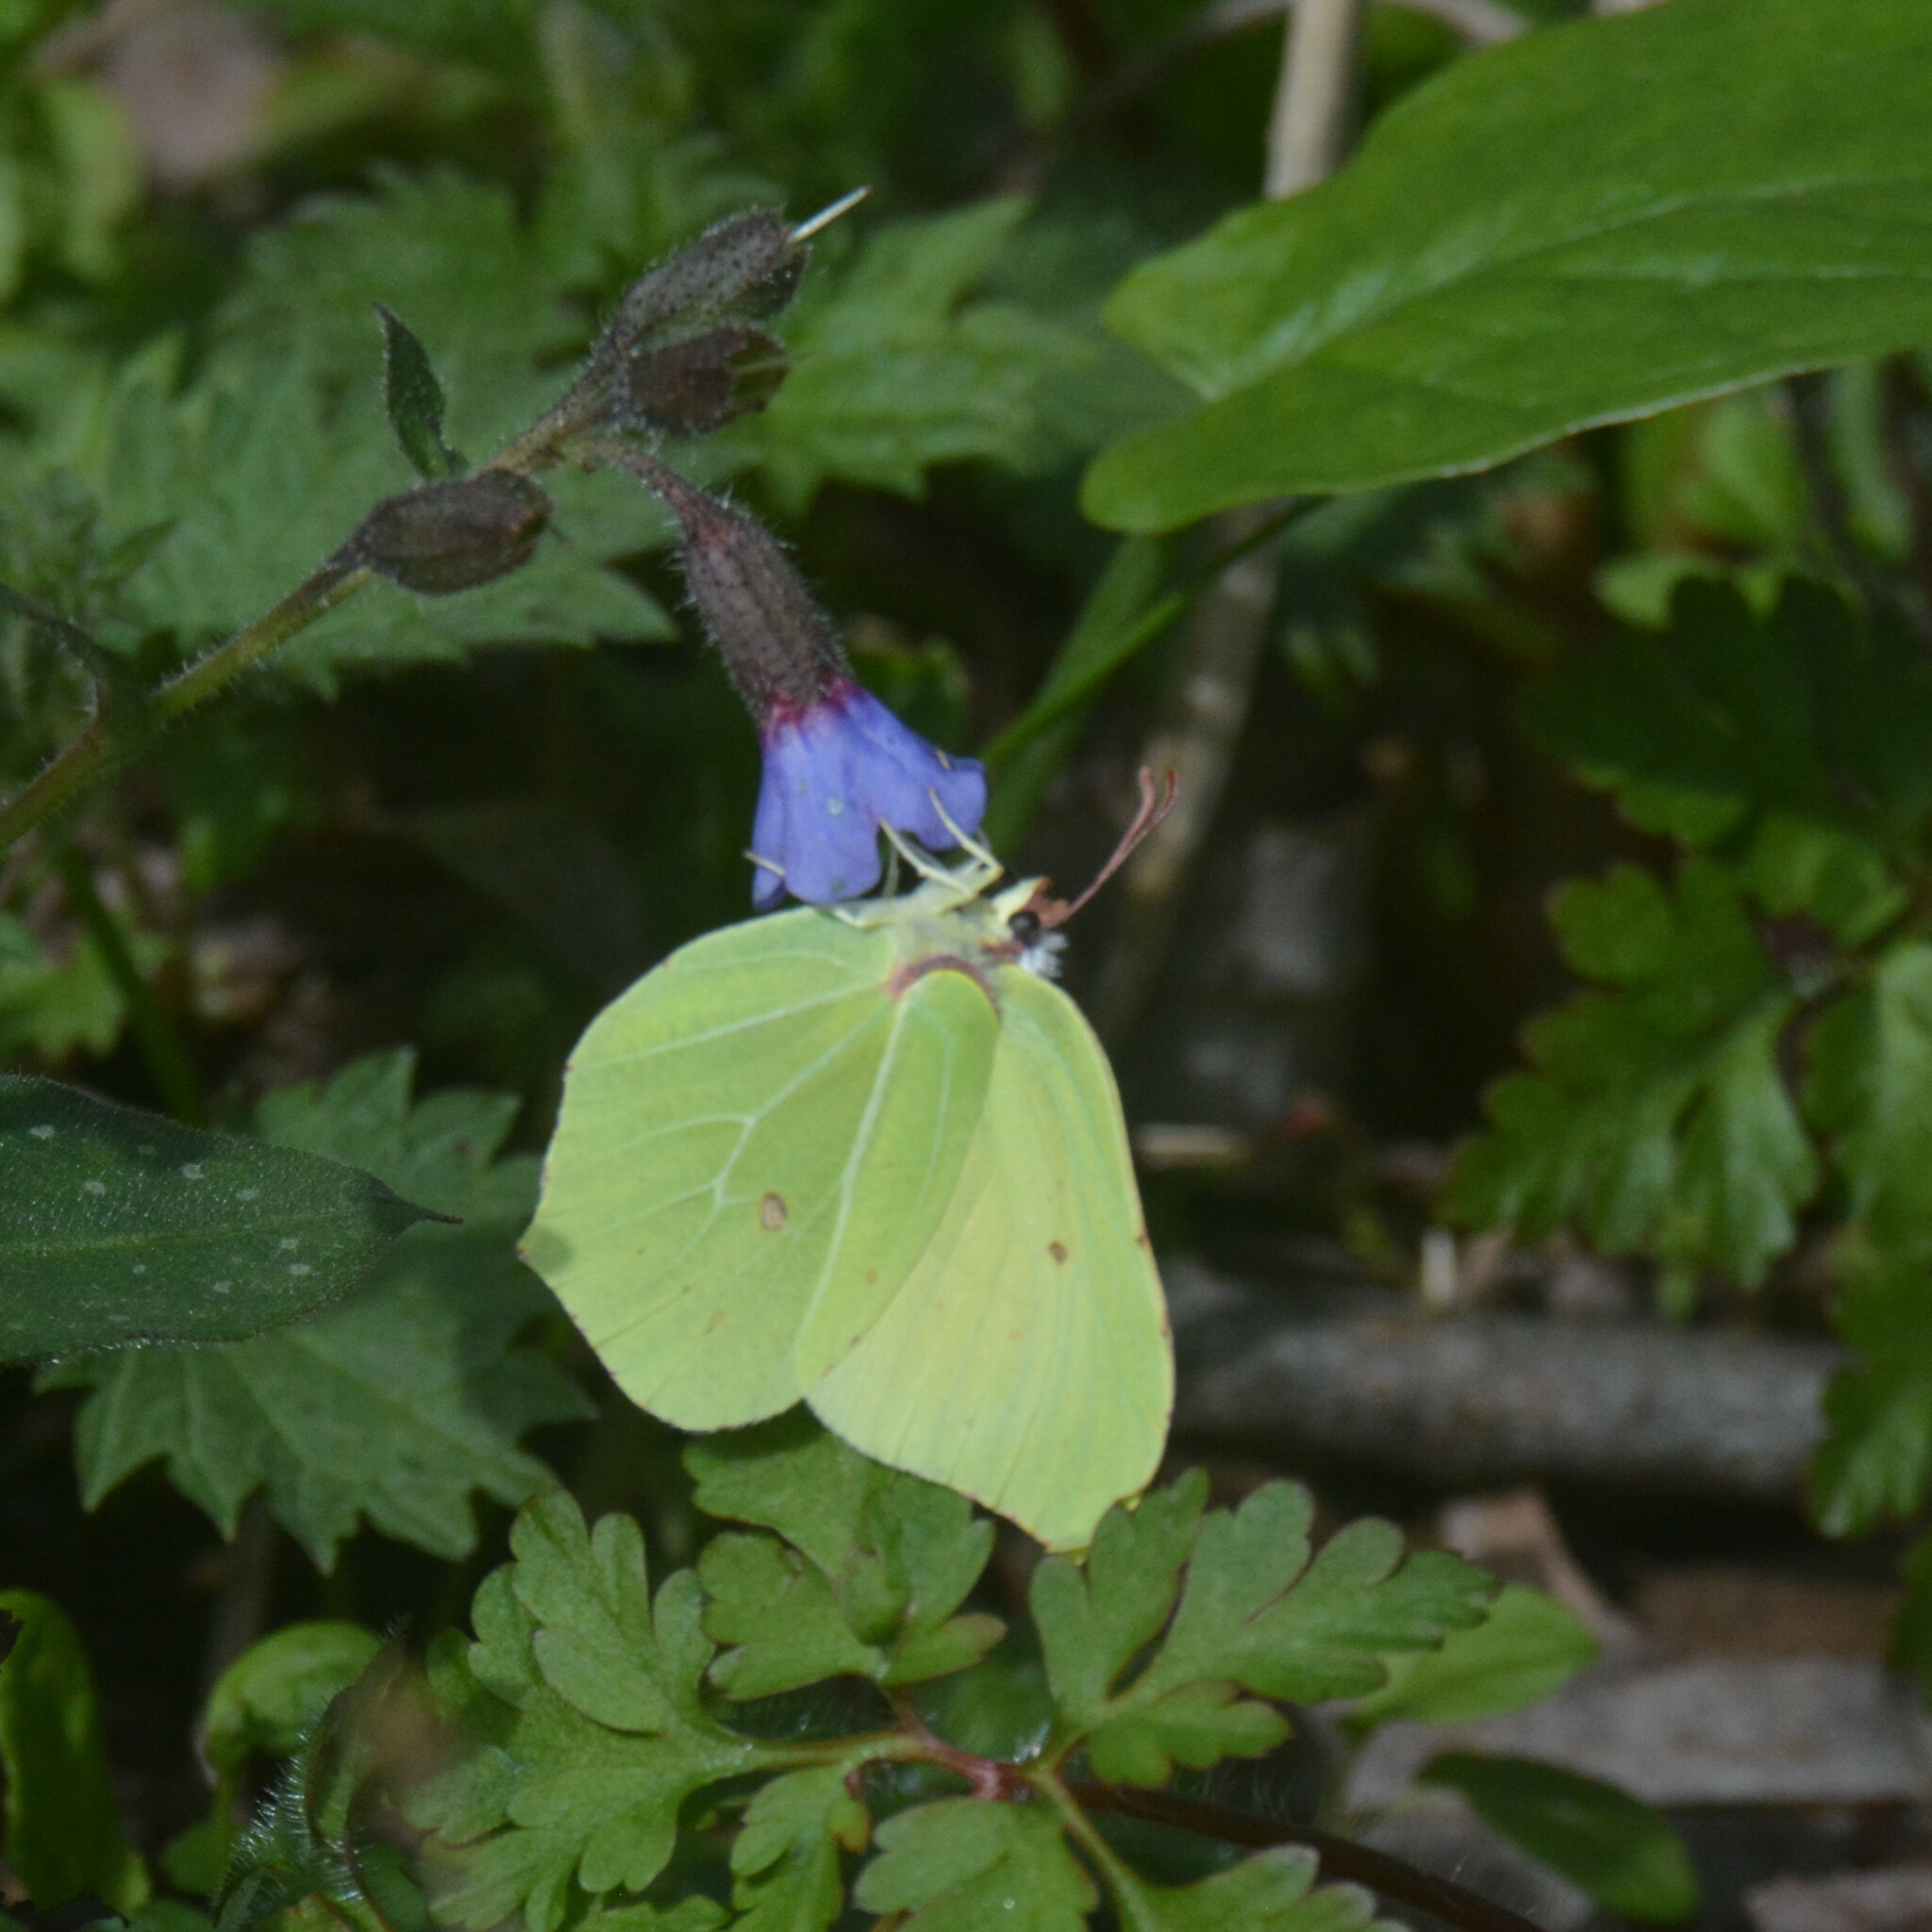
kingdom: Animalia
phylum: Arthropoda
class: Insecta
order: Lepidoptera
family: Pieridae
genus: Gonepteryx
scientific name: Gonepteryx rhamni
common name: Brimstone
